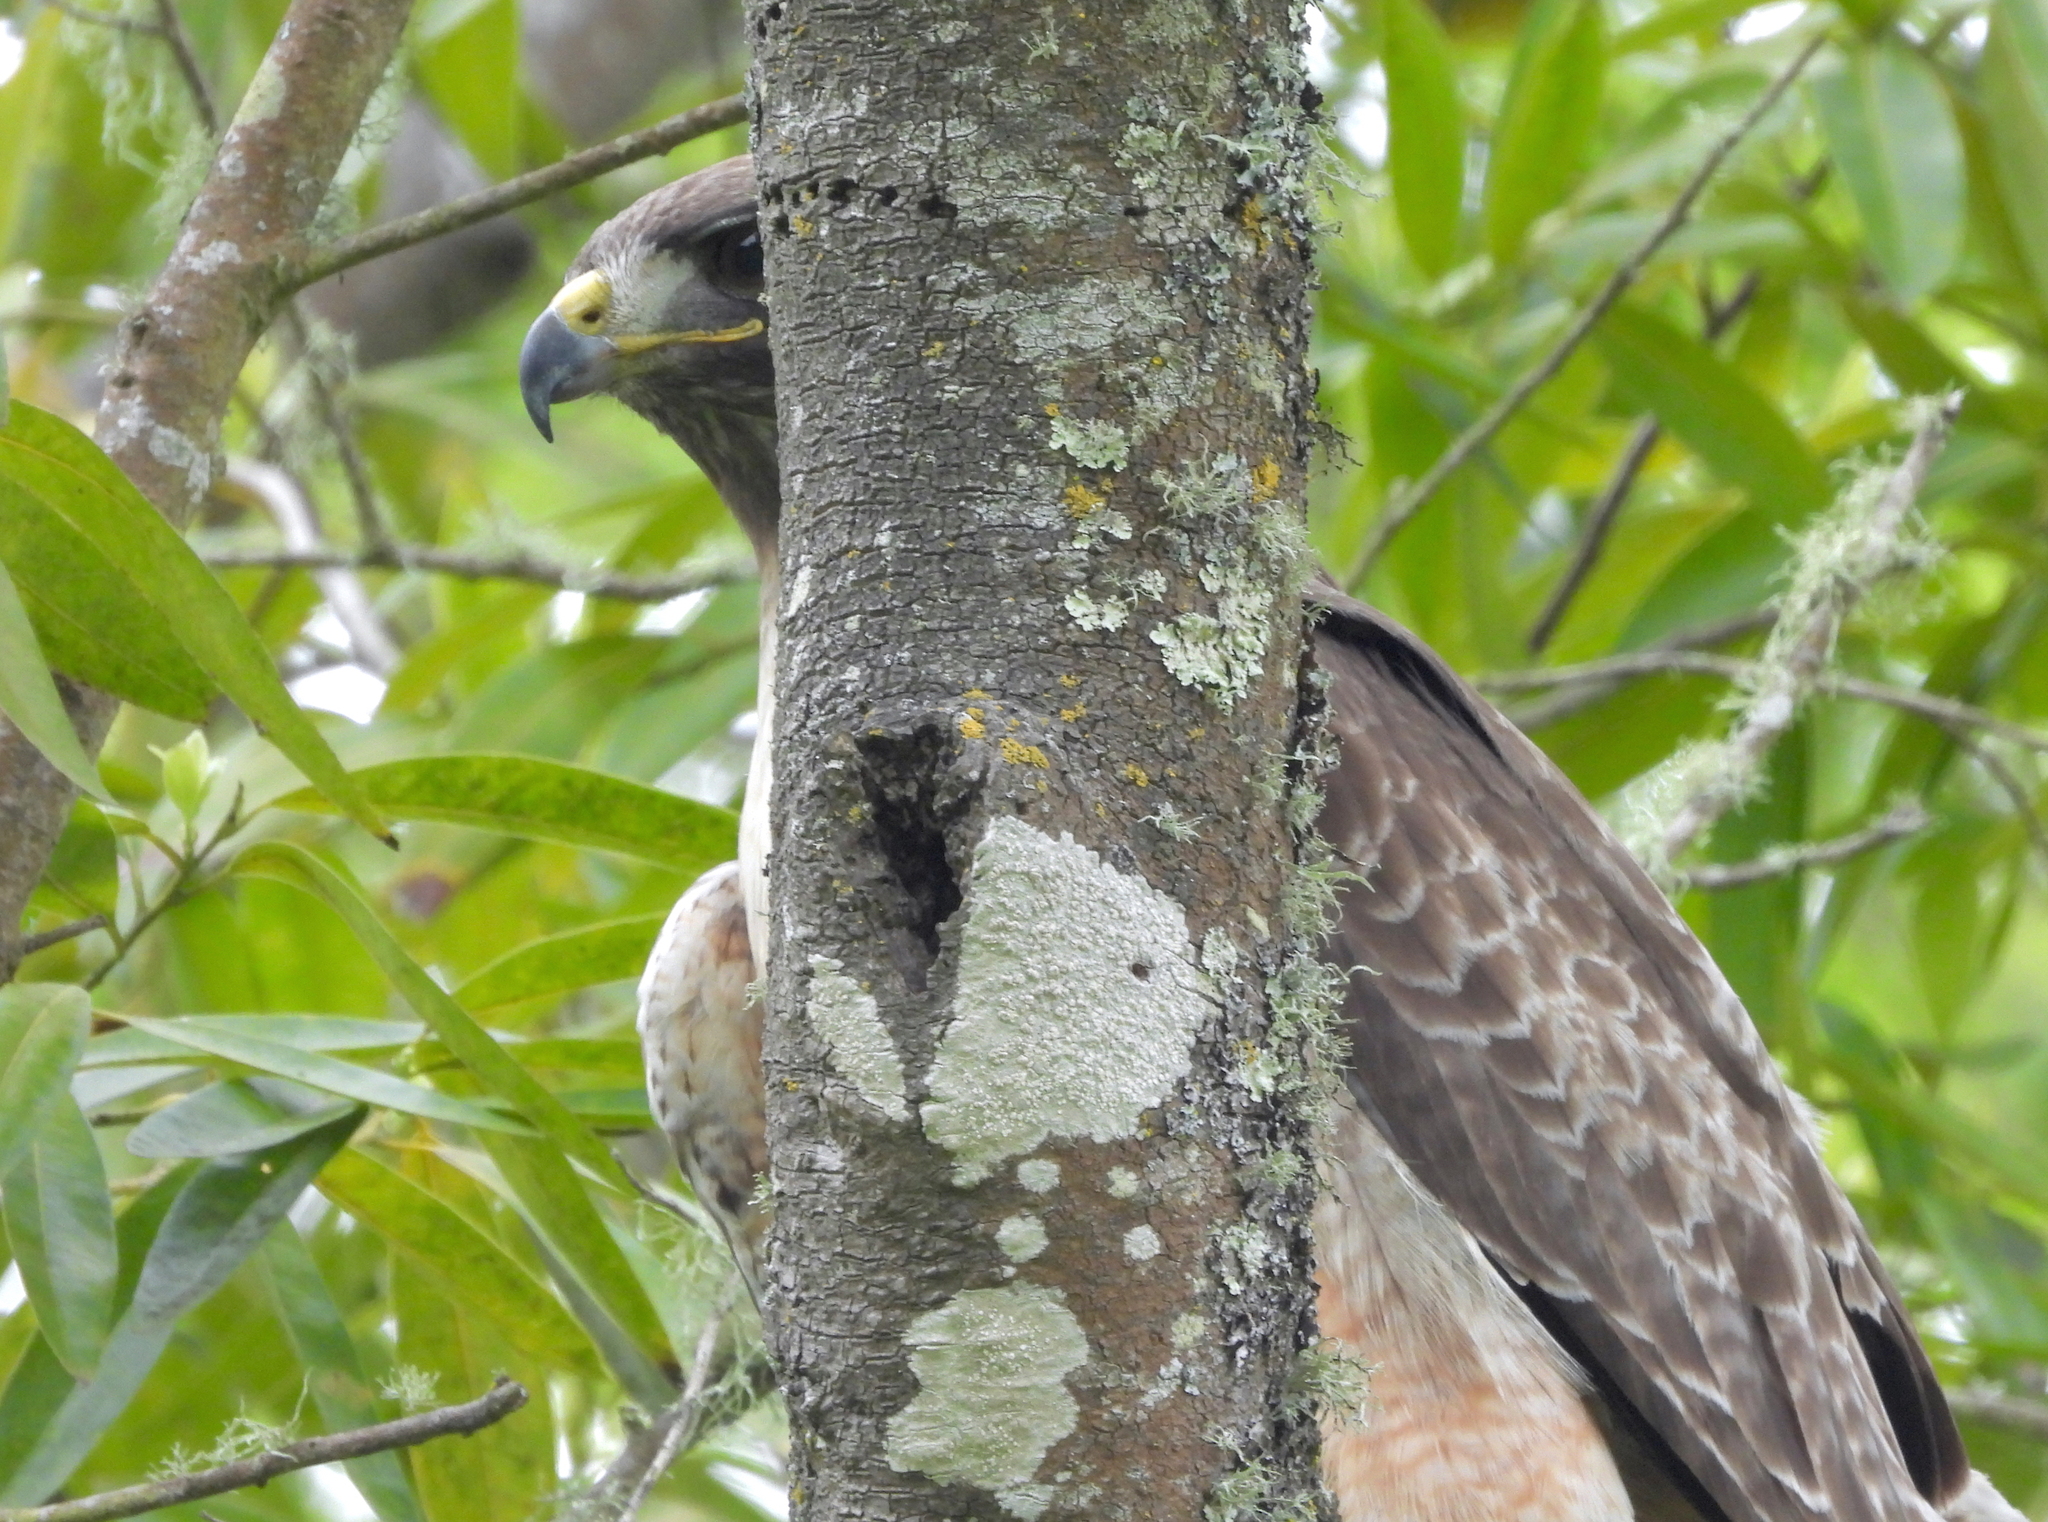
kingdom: Animalia
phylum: Chordata
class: Aves
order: Accipitriformes
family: Accipitridae
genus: Buteo
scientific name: Buteo jamaicensis
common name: Red-tailed hawk
